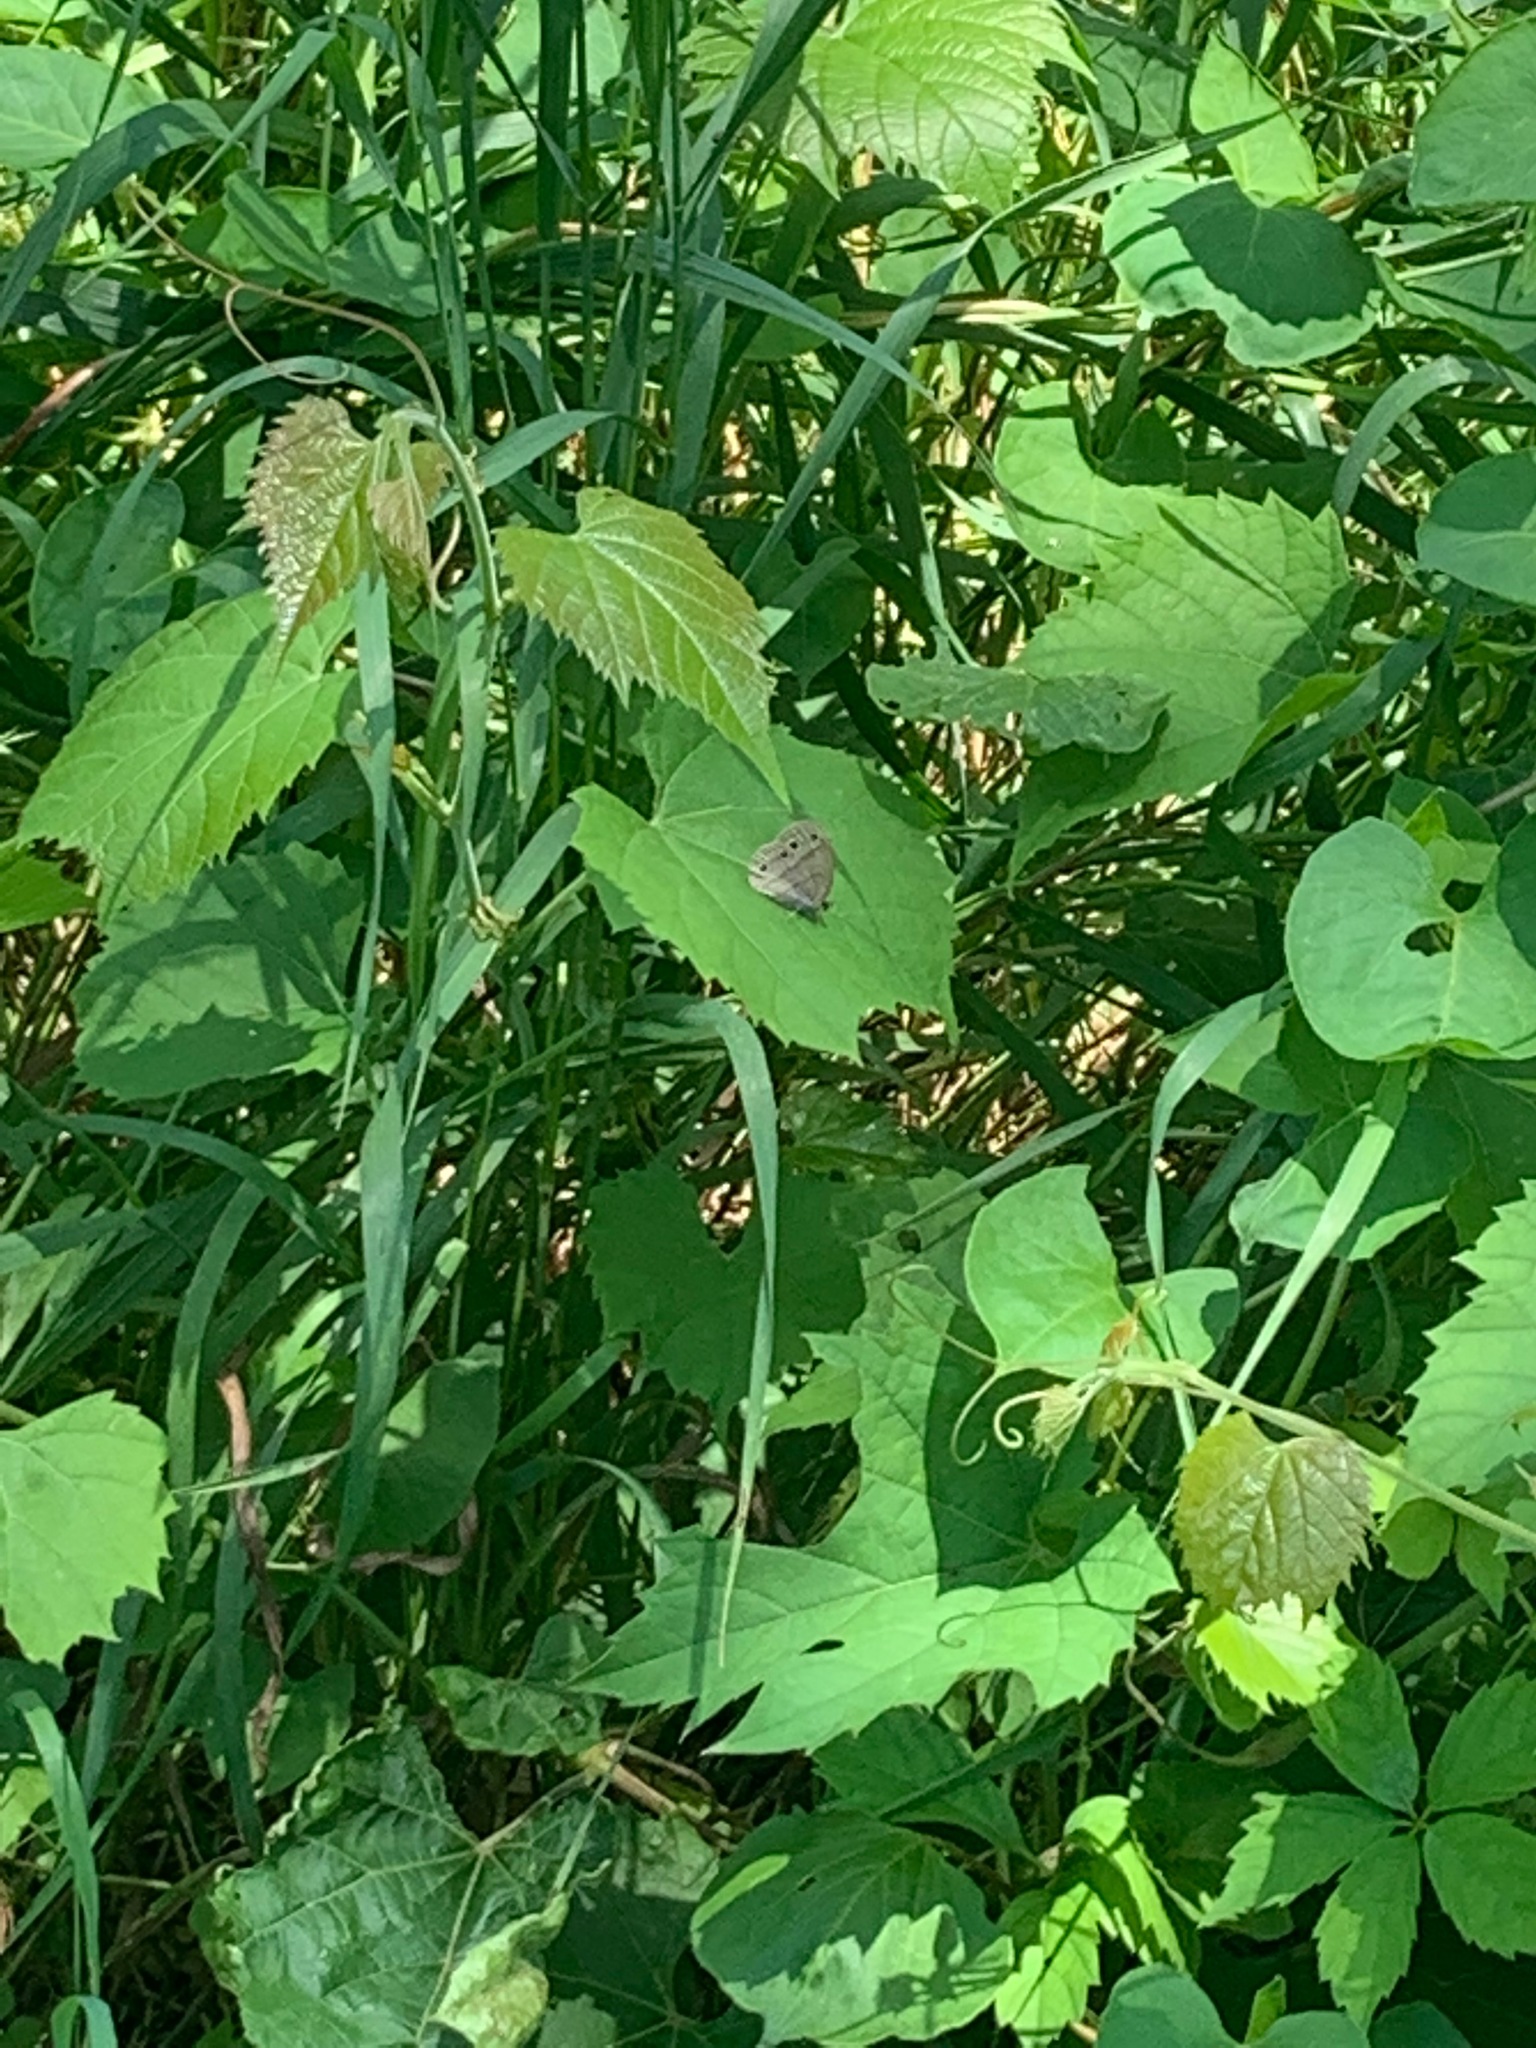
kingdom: Animalia
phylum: Arthropoda
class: Insecta
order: Lepidoptera
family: Nymphalidae
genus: Euptychia
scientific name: Euptychia cymela
